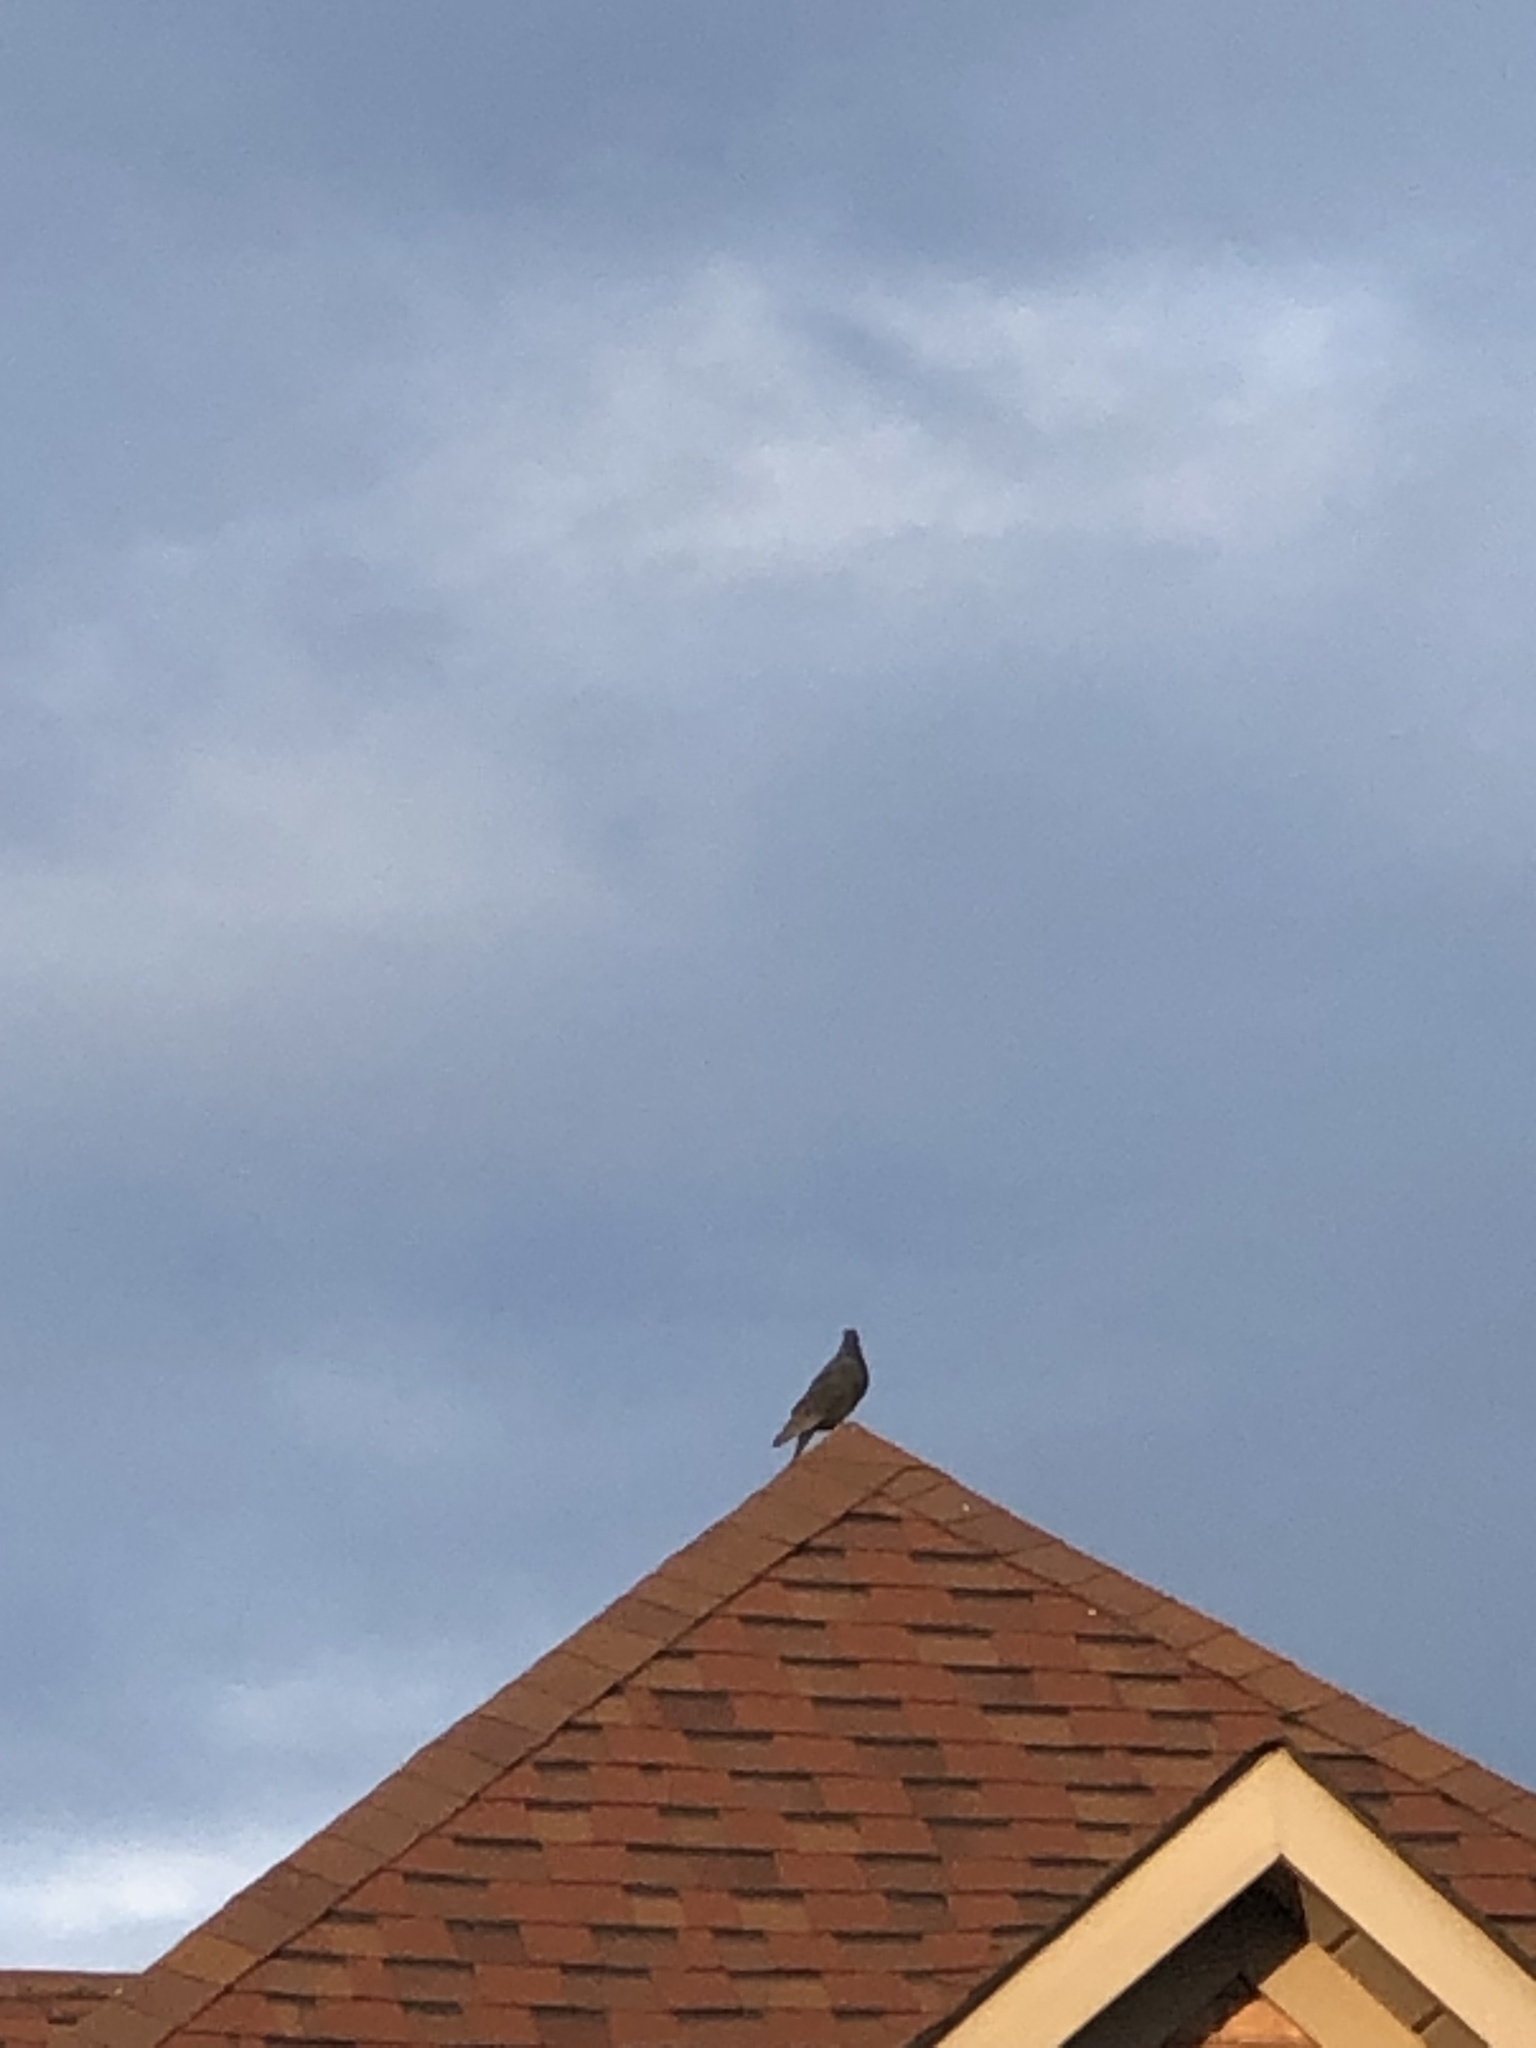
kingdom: Animalia
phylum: Chordata
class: Aves
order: Columbiformes
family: Columbidae
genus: Columba
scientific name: Columba livia
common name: Rock pigeon
